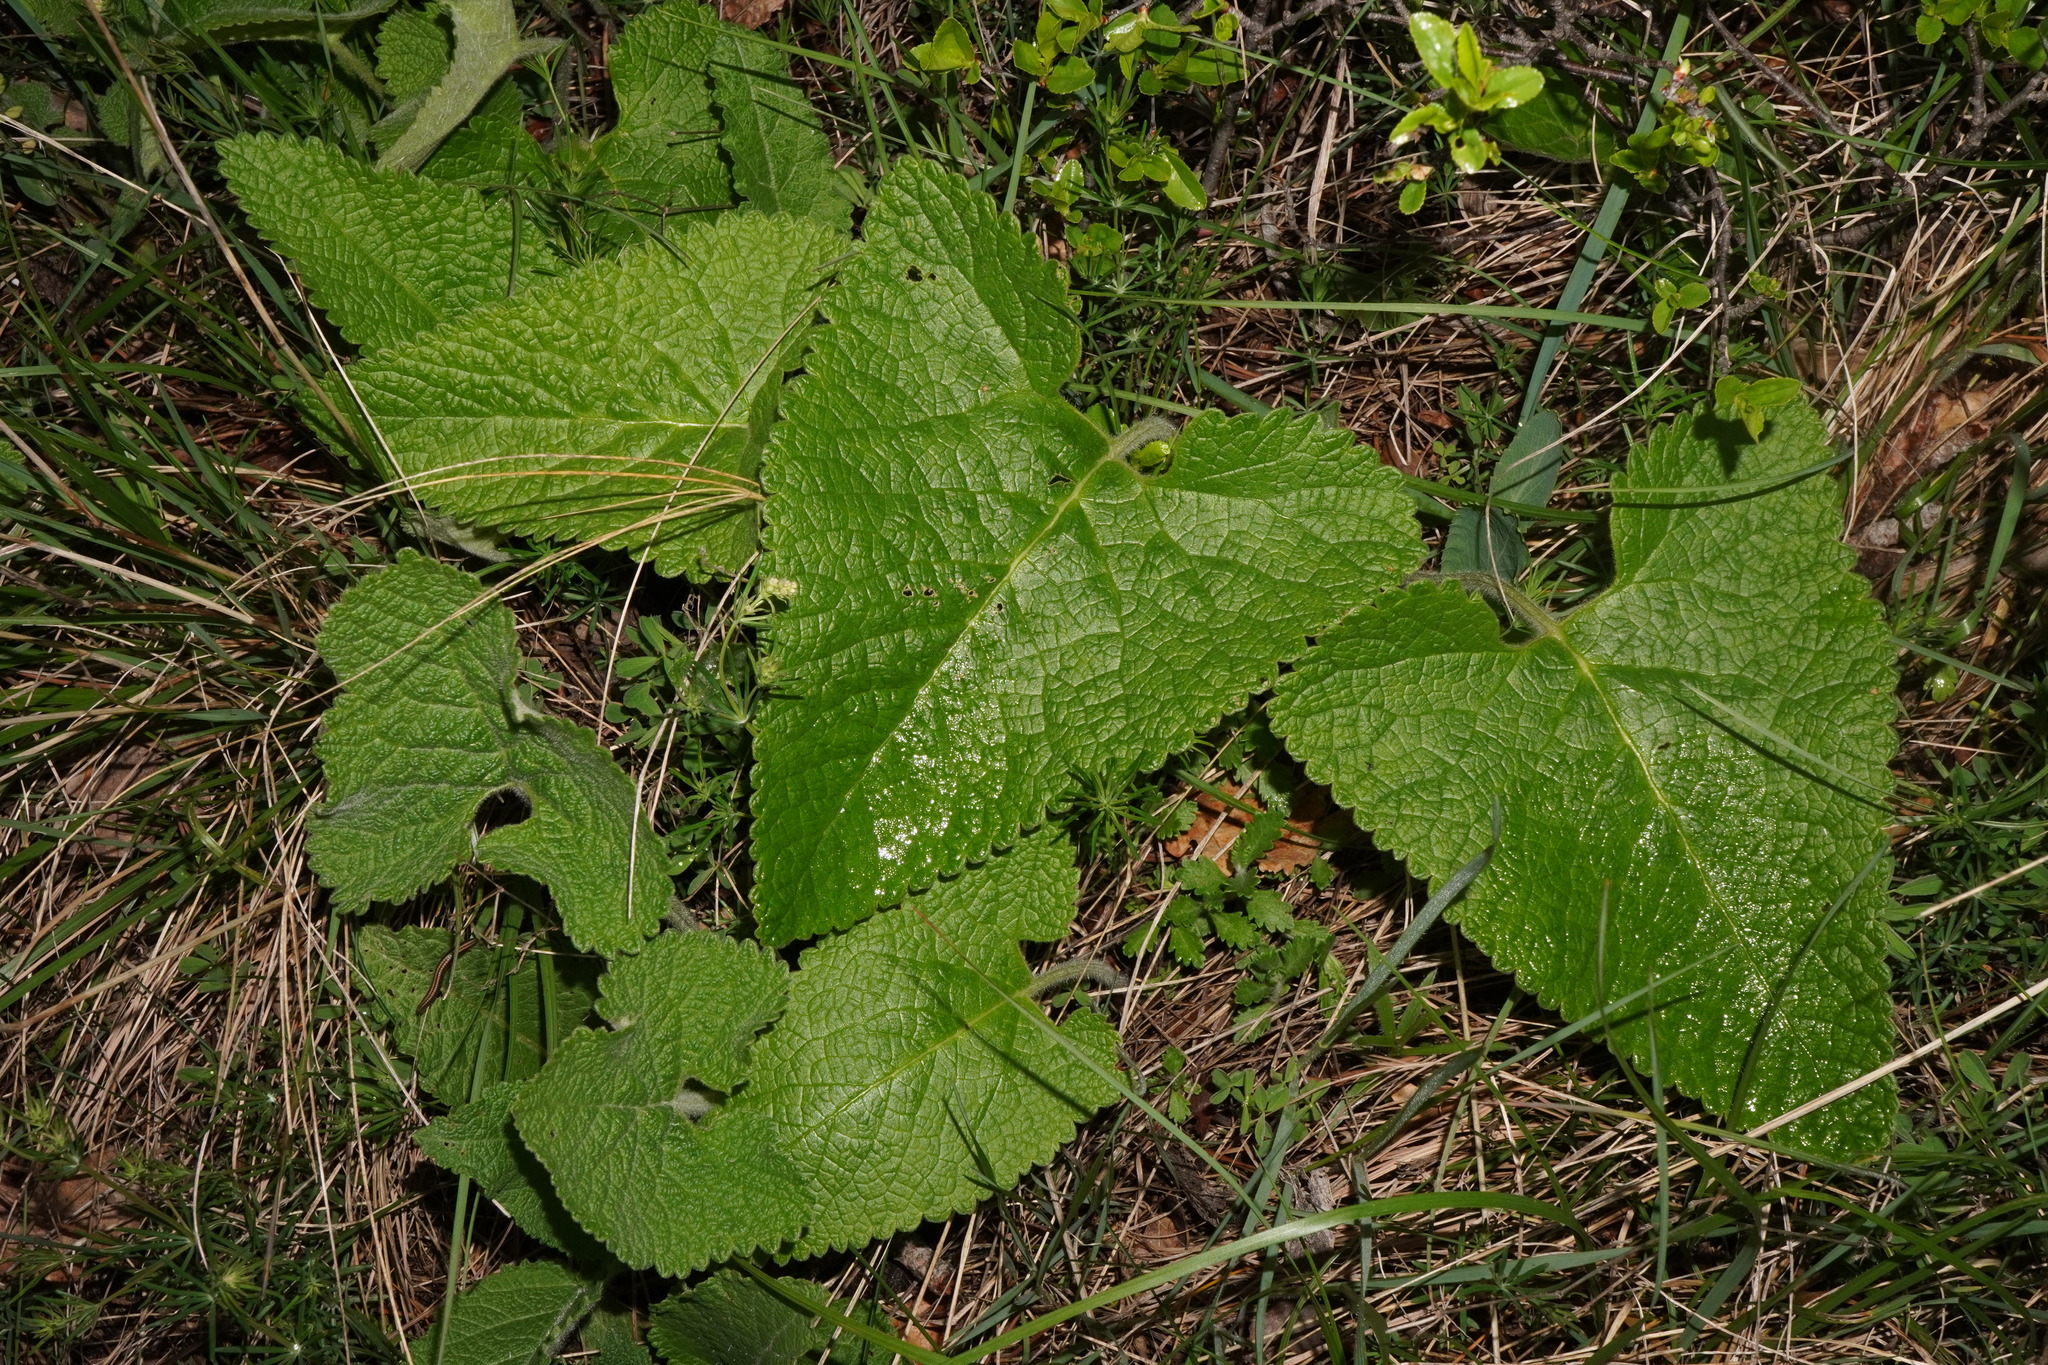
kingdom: Plantae
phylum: Tracheophyta
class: Magnoliopsida
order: Lamiales
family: Lamiaceae
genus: Phlomoides
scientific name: Phlomoides tuberosa
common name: Tuberous jerusalem sage
